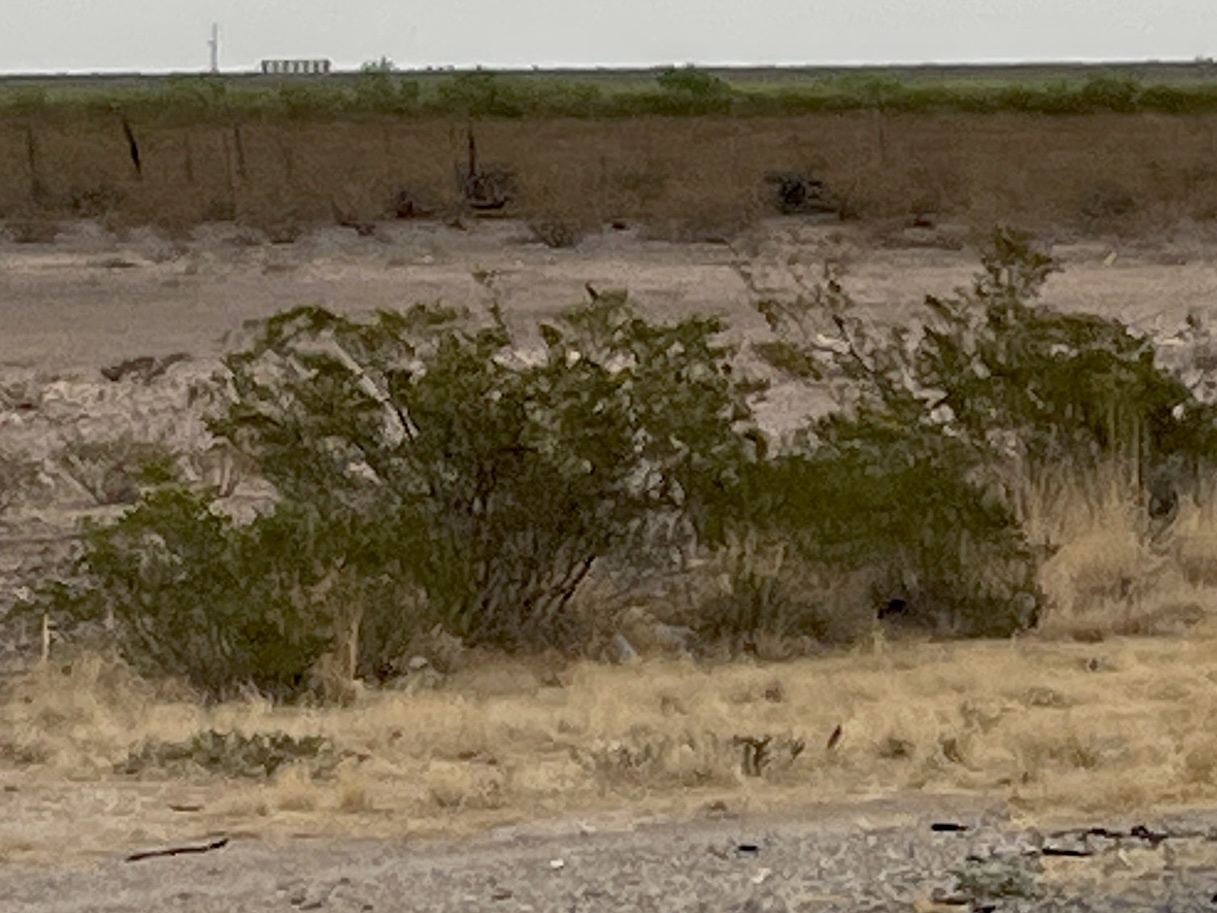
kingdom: Plantae
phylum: Tracheophyta
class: Magnoliopsida
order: Zygophyllales
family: Zygophyllaceae
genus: Larrea
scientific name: Larrea tridentata
